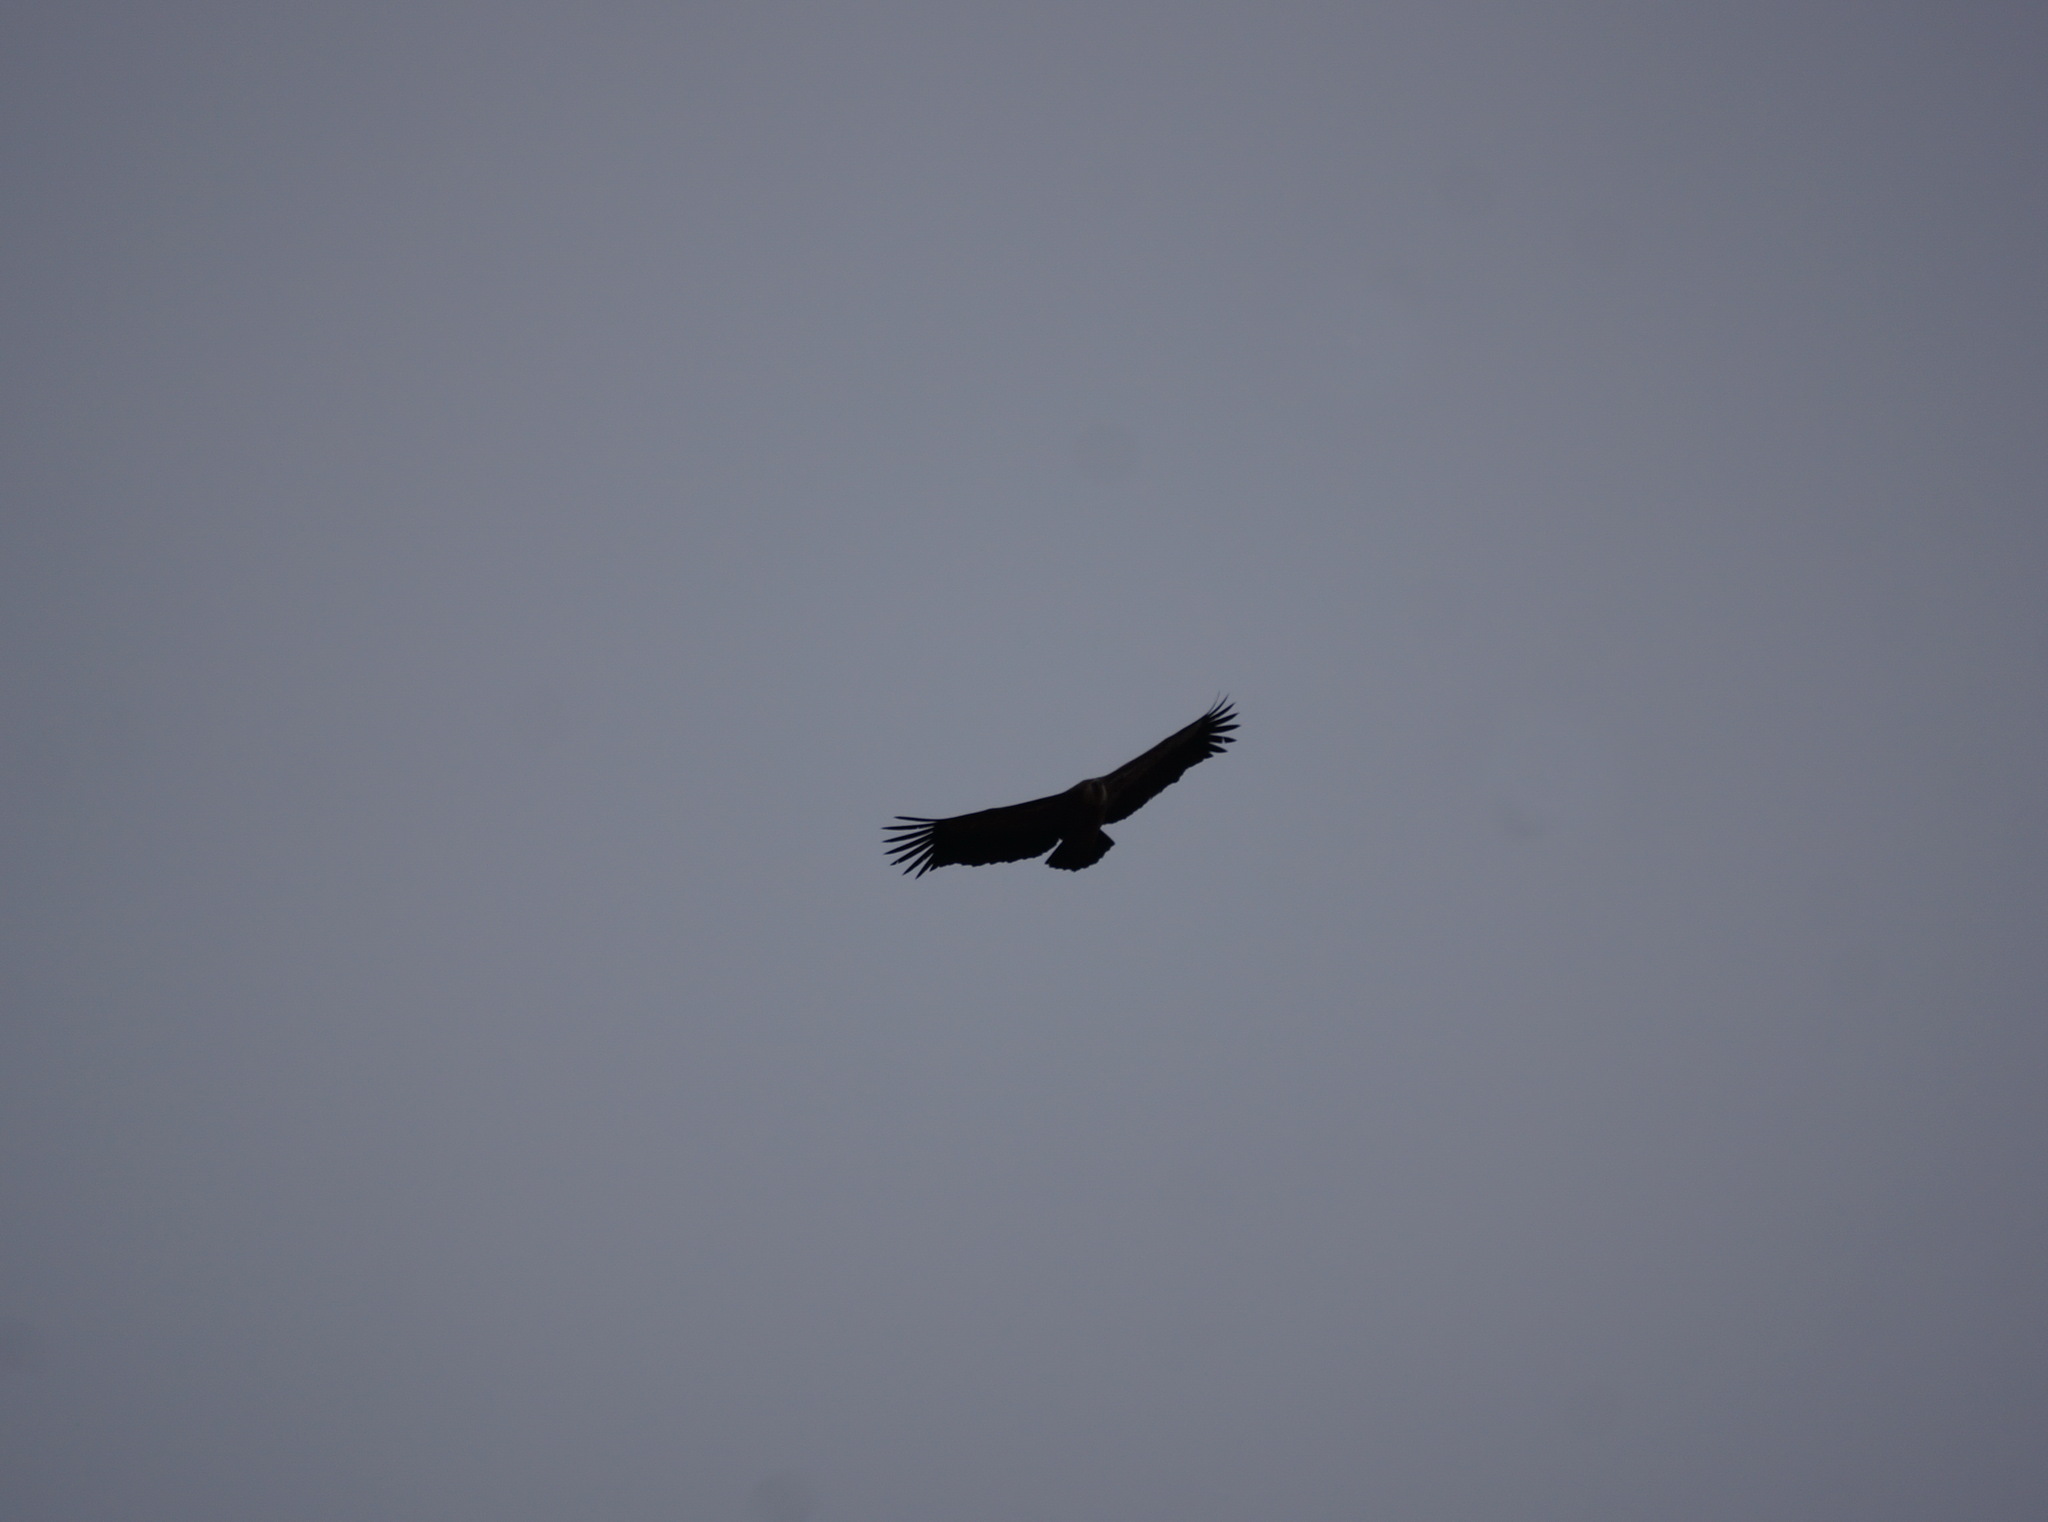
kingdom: Animalia
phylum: Chordata
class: Aves
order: Accipitriformes
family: Accipitridae
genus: Gyps
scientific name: Gyps fulvus
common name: Griffon vulture
